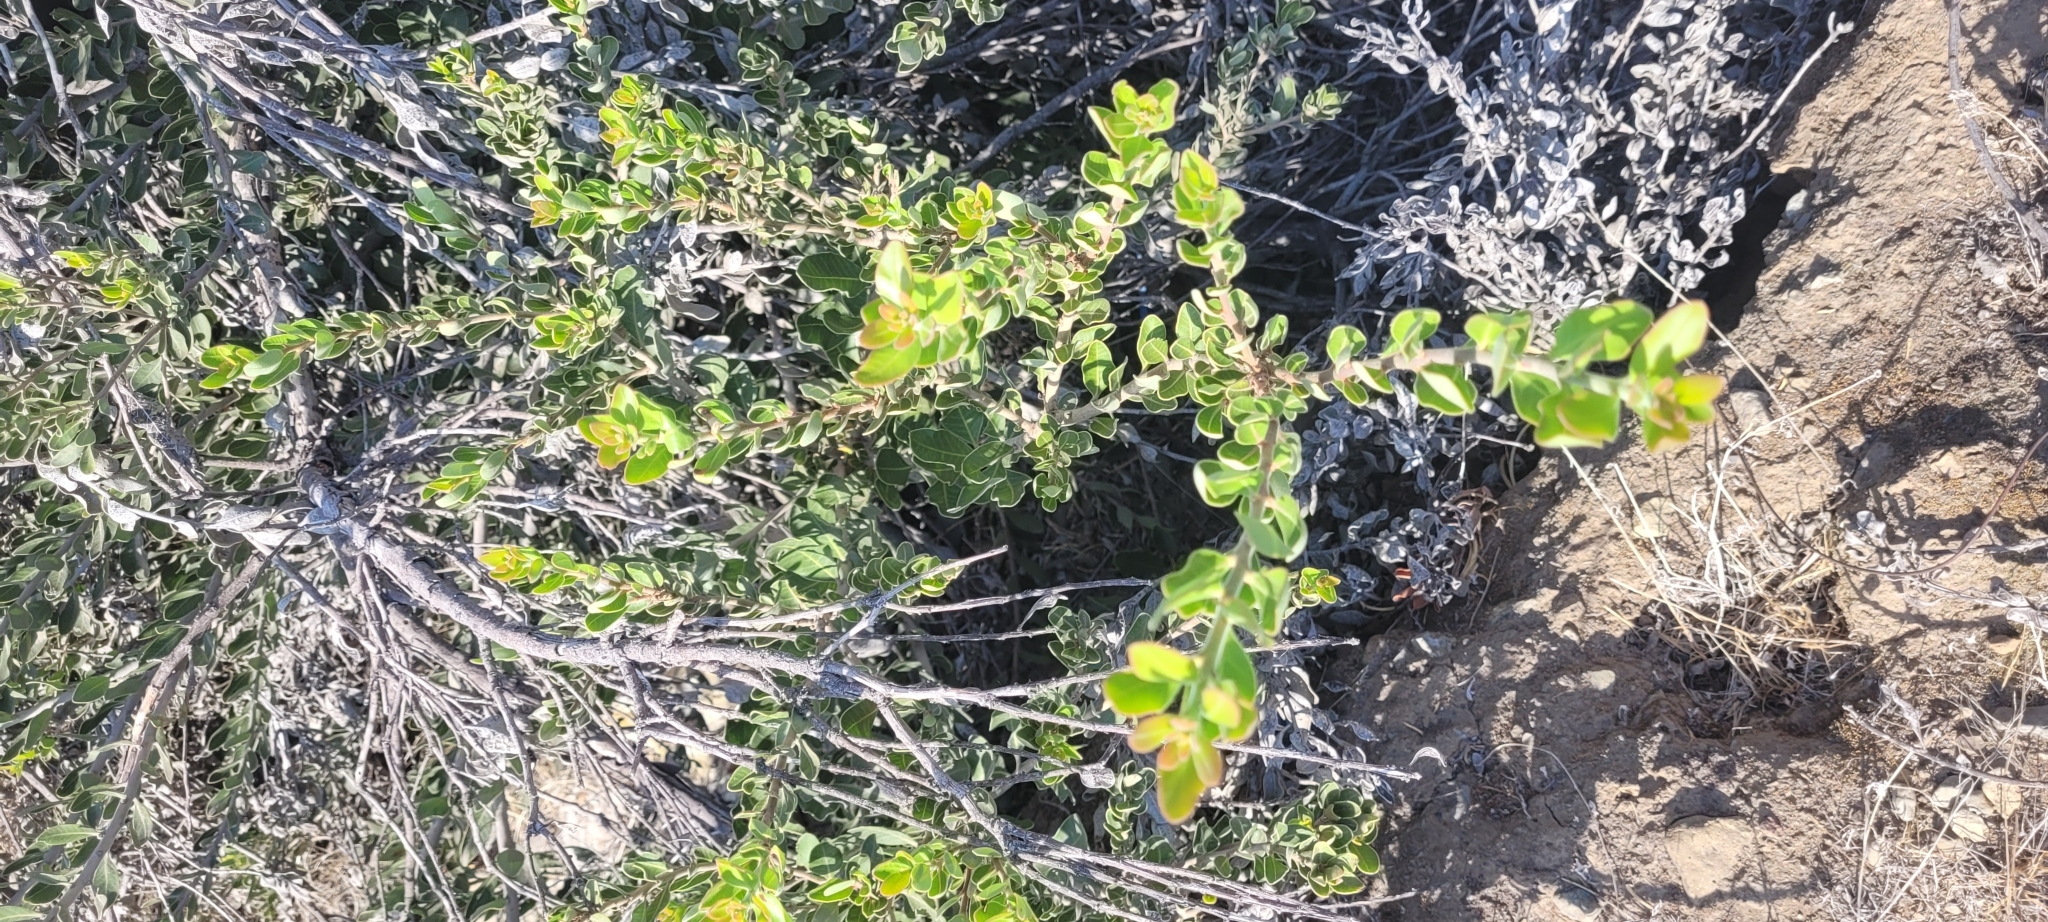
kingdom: Plantae
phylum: Tracheophyta
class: Magnoliopsida
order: Sapindales
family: Anacardiaceae
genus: Lithraea
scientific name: Lithraea caustica
